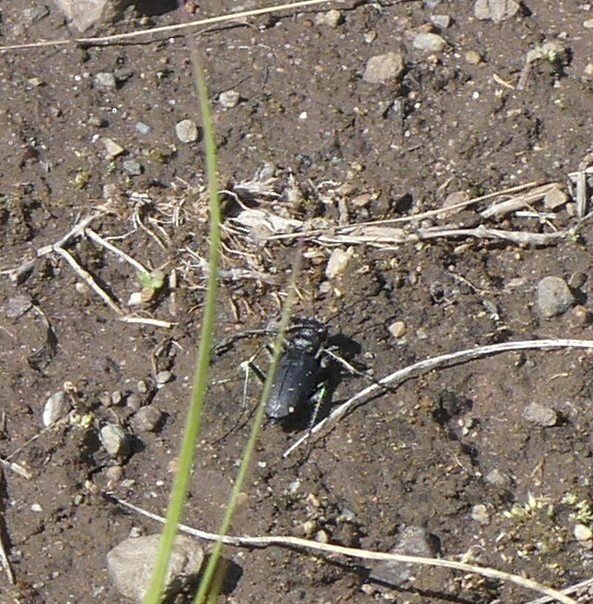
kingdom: Animalia
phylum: Arthropoda
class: Insecta
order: Coleoptera
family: Carabidae
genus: Cicindela
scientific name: Cicindela longilabris
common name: Boreal long-lipped tiger beetle
